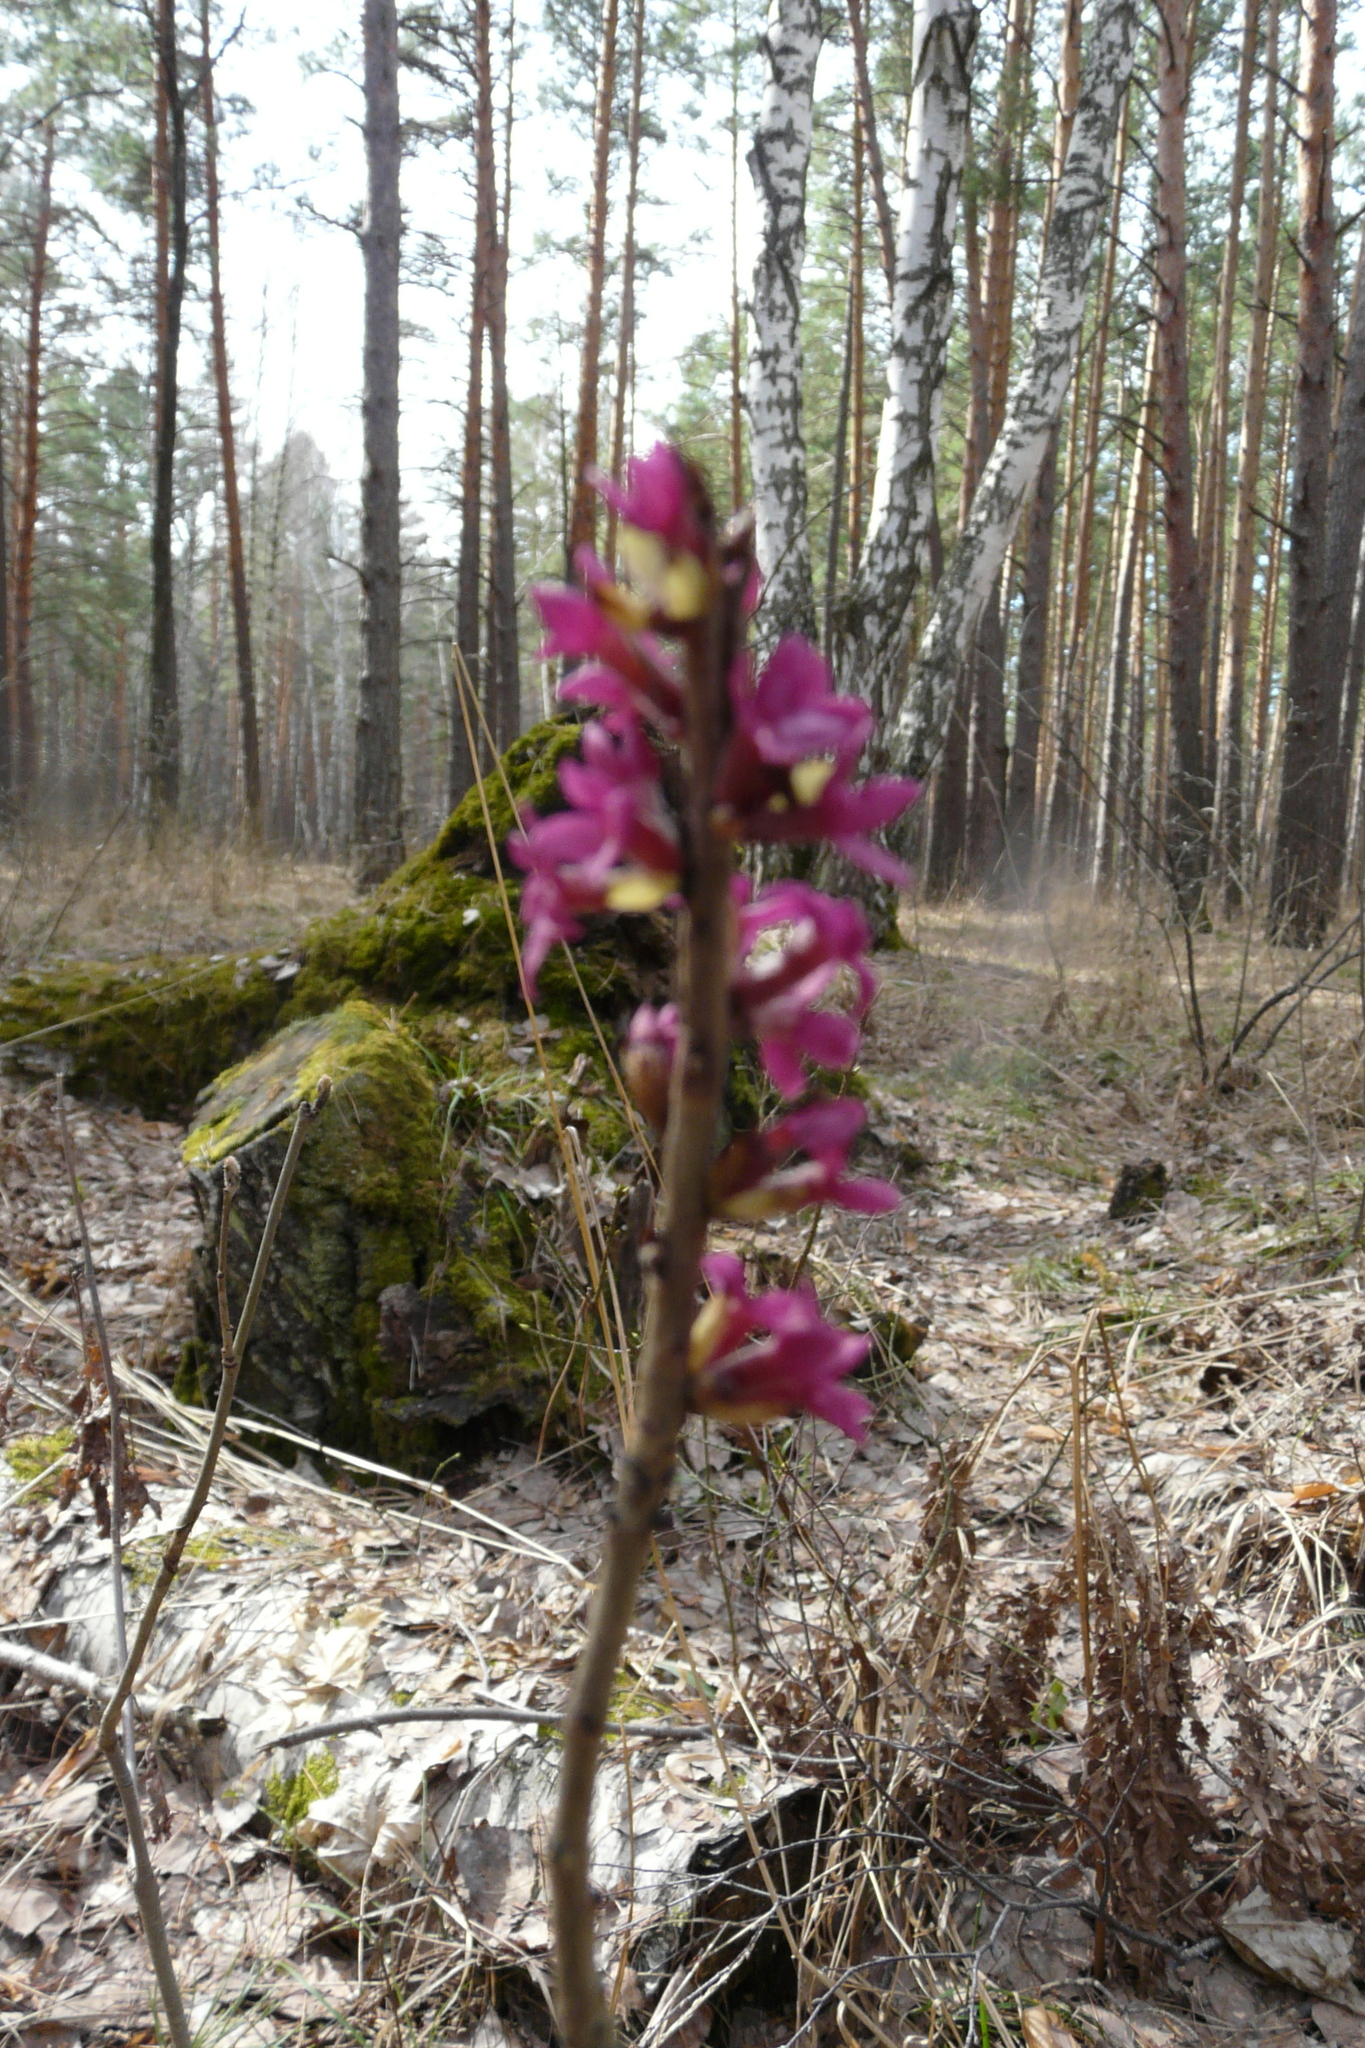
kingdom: Plantae
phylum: Tracheophyta
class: Magnoliopsida
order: Malvales
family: Thymelaeaceae
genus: Daphne
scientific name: Daphne mezereum
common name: Mezereon
